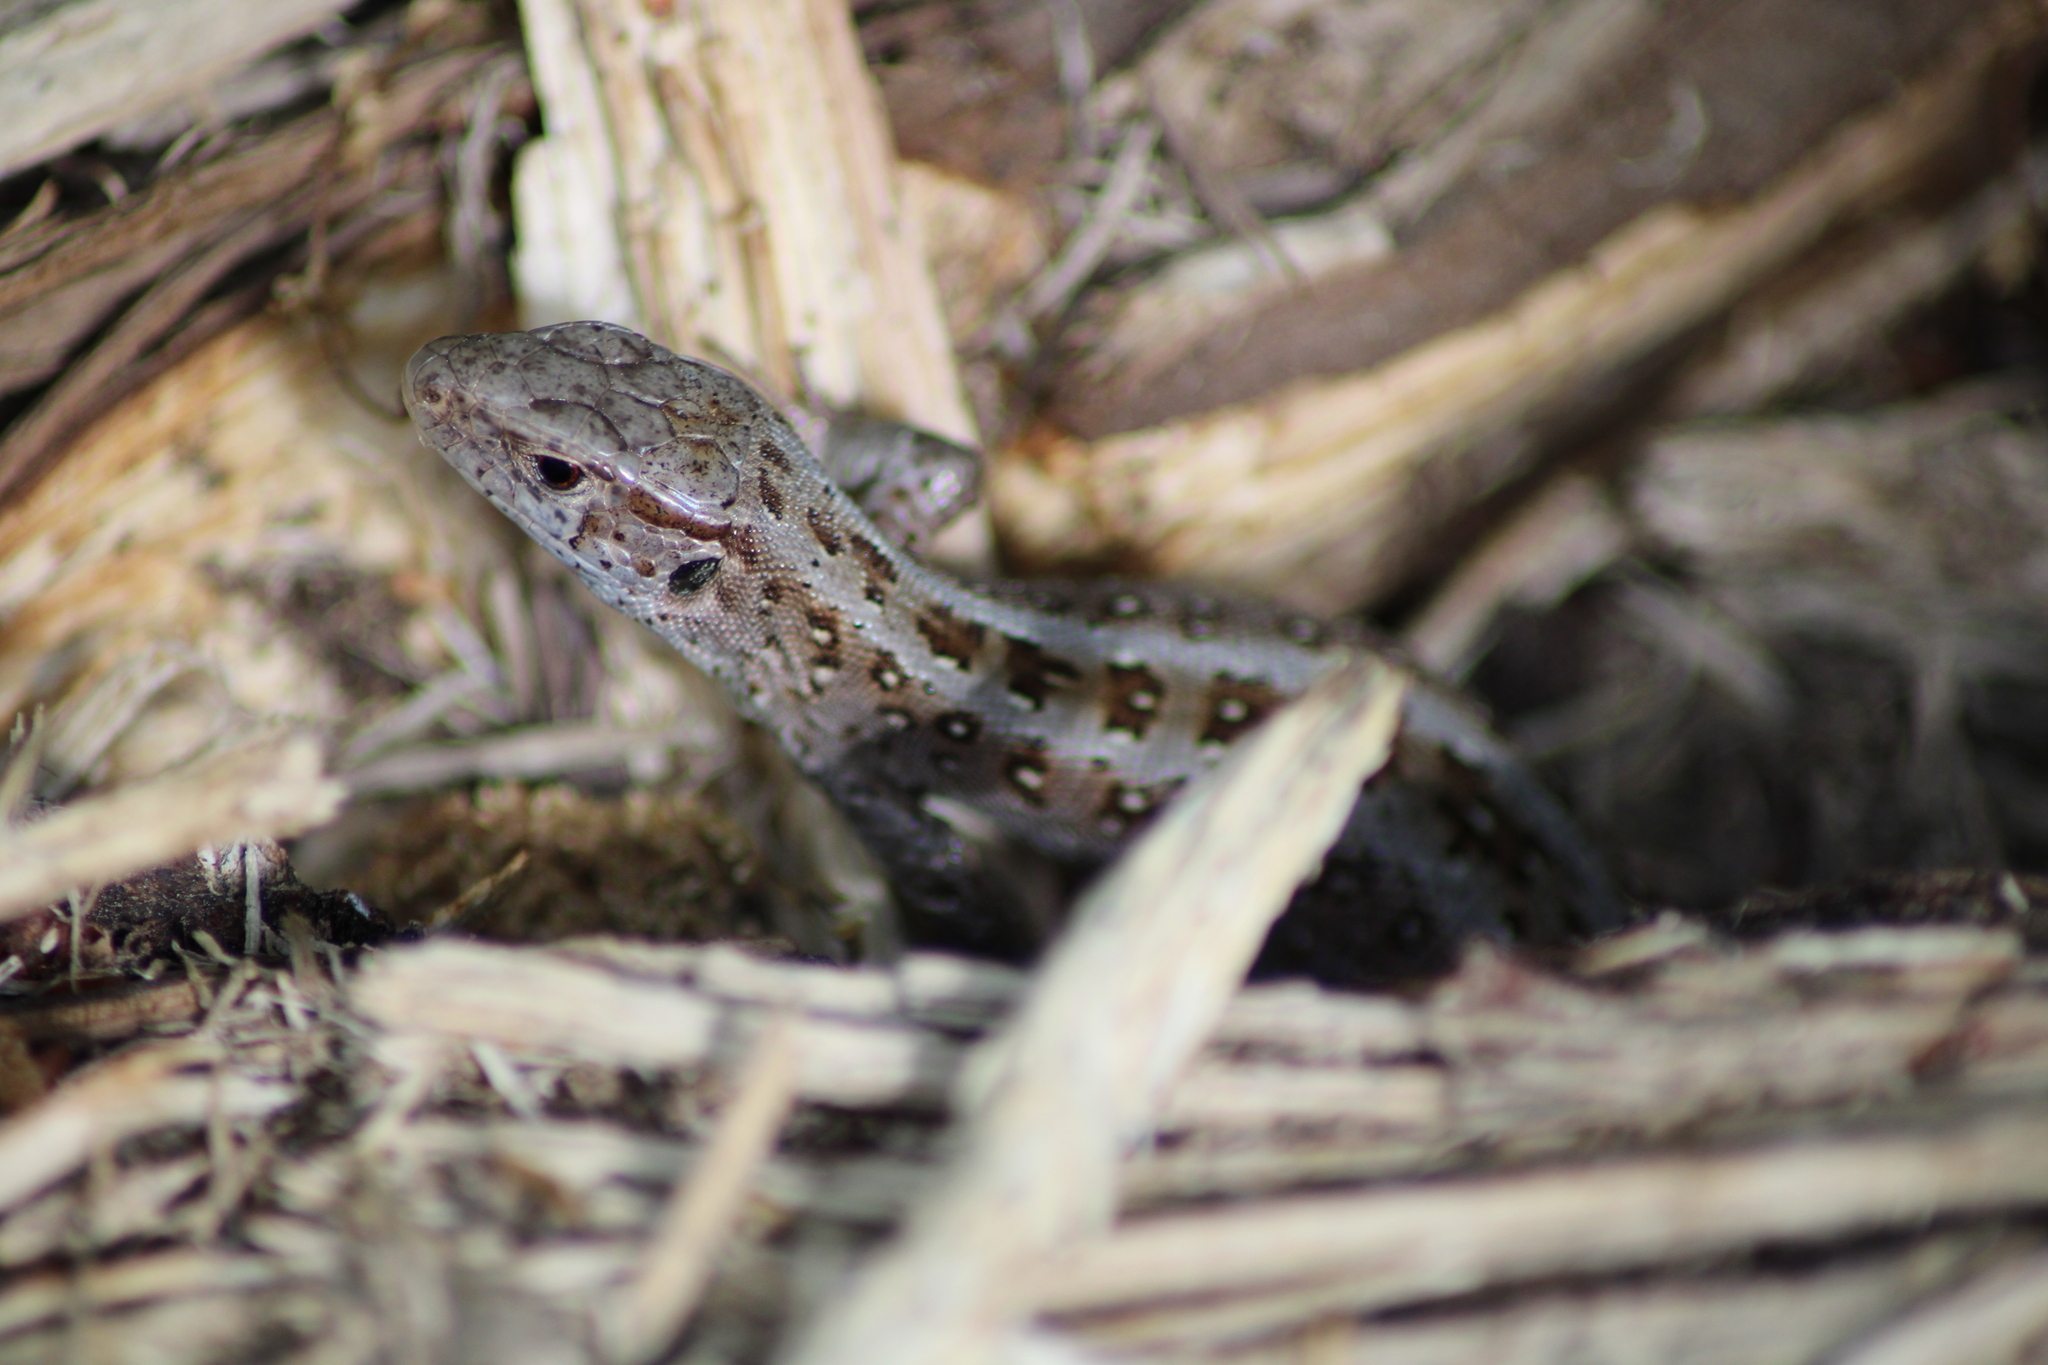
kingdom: Animalia
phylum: Chordata
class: Squamata
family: Lacertidae
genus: Lacerta
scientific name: Lacerta agilis
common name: Sand lizard
